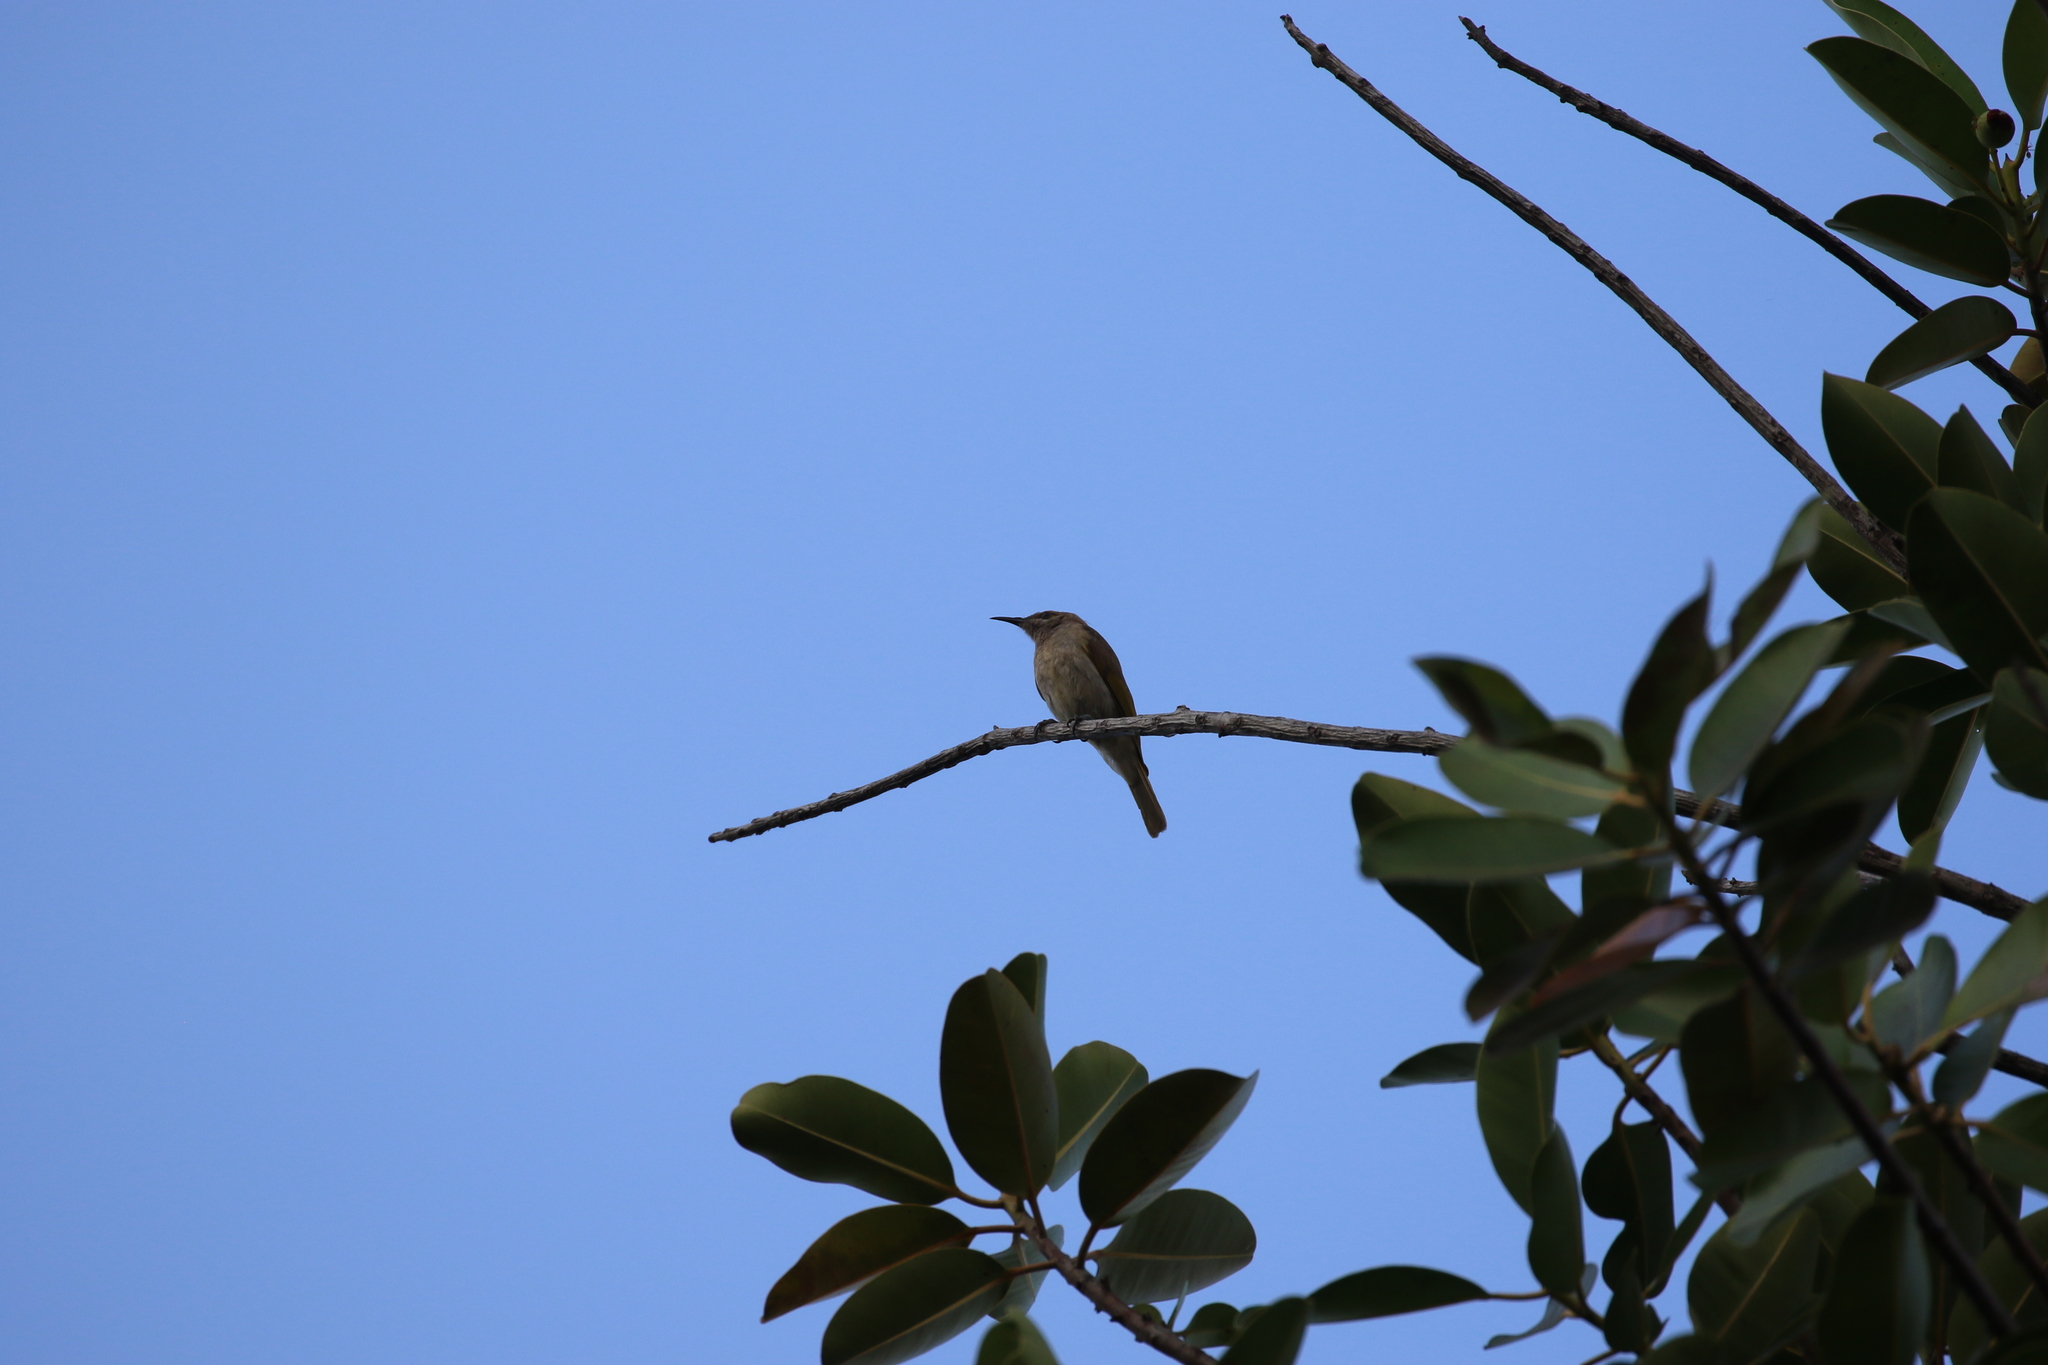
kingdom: Animalia
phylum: Chordata
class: Aves
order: Passeriformes
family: Meliphagidae
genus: Lichmera
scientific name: Lichmera indistincta
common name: Brown honeyeater
